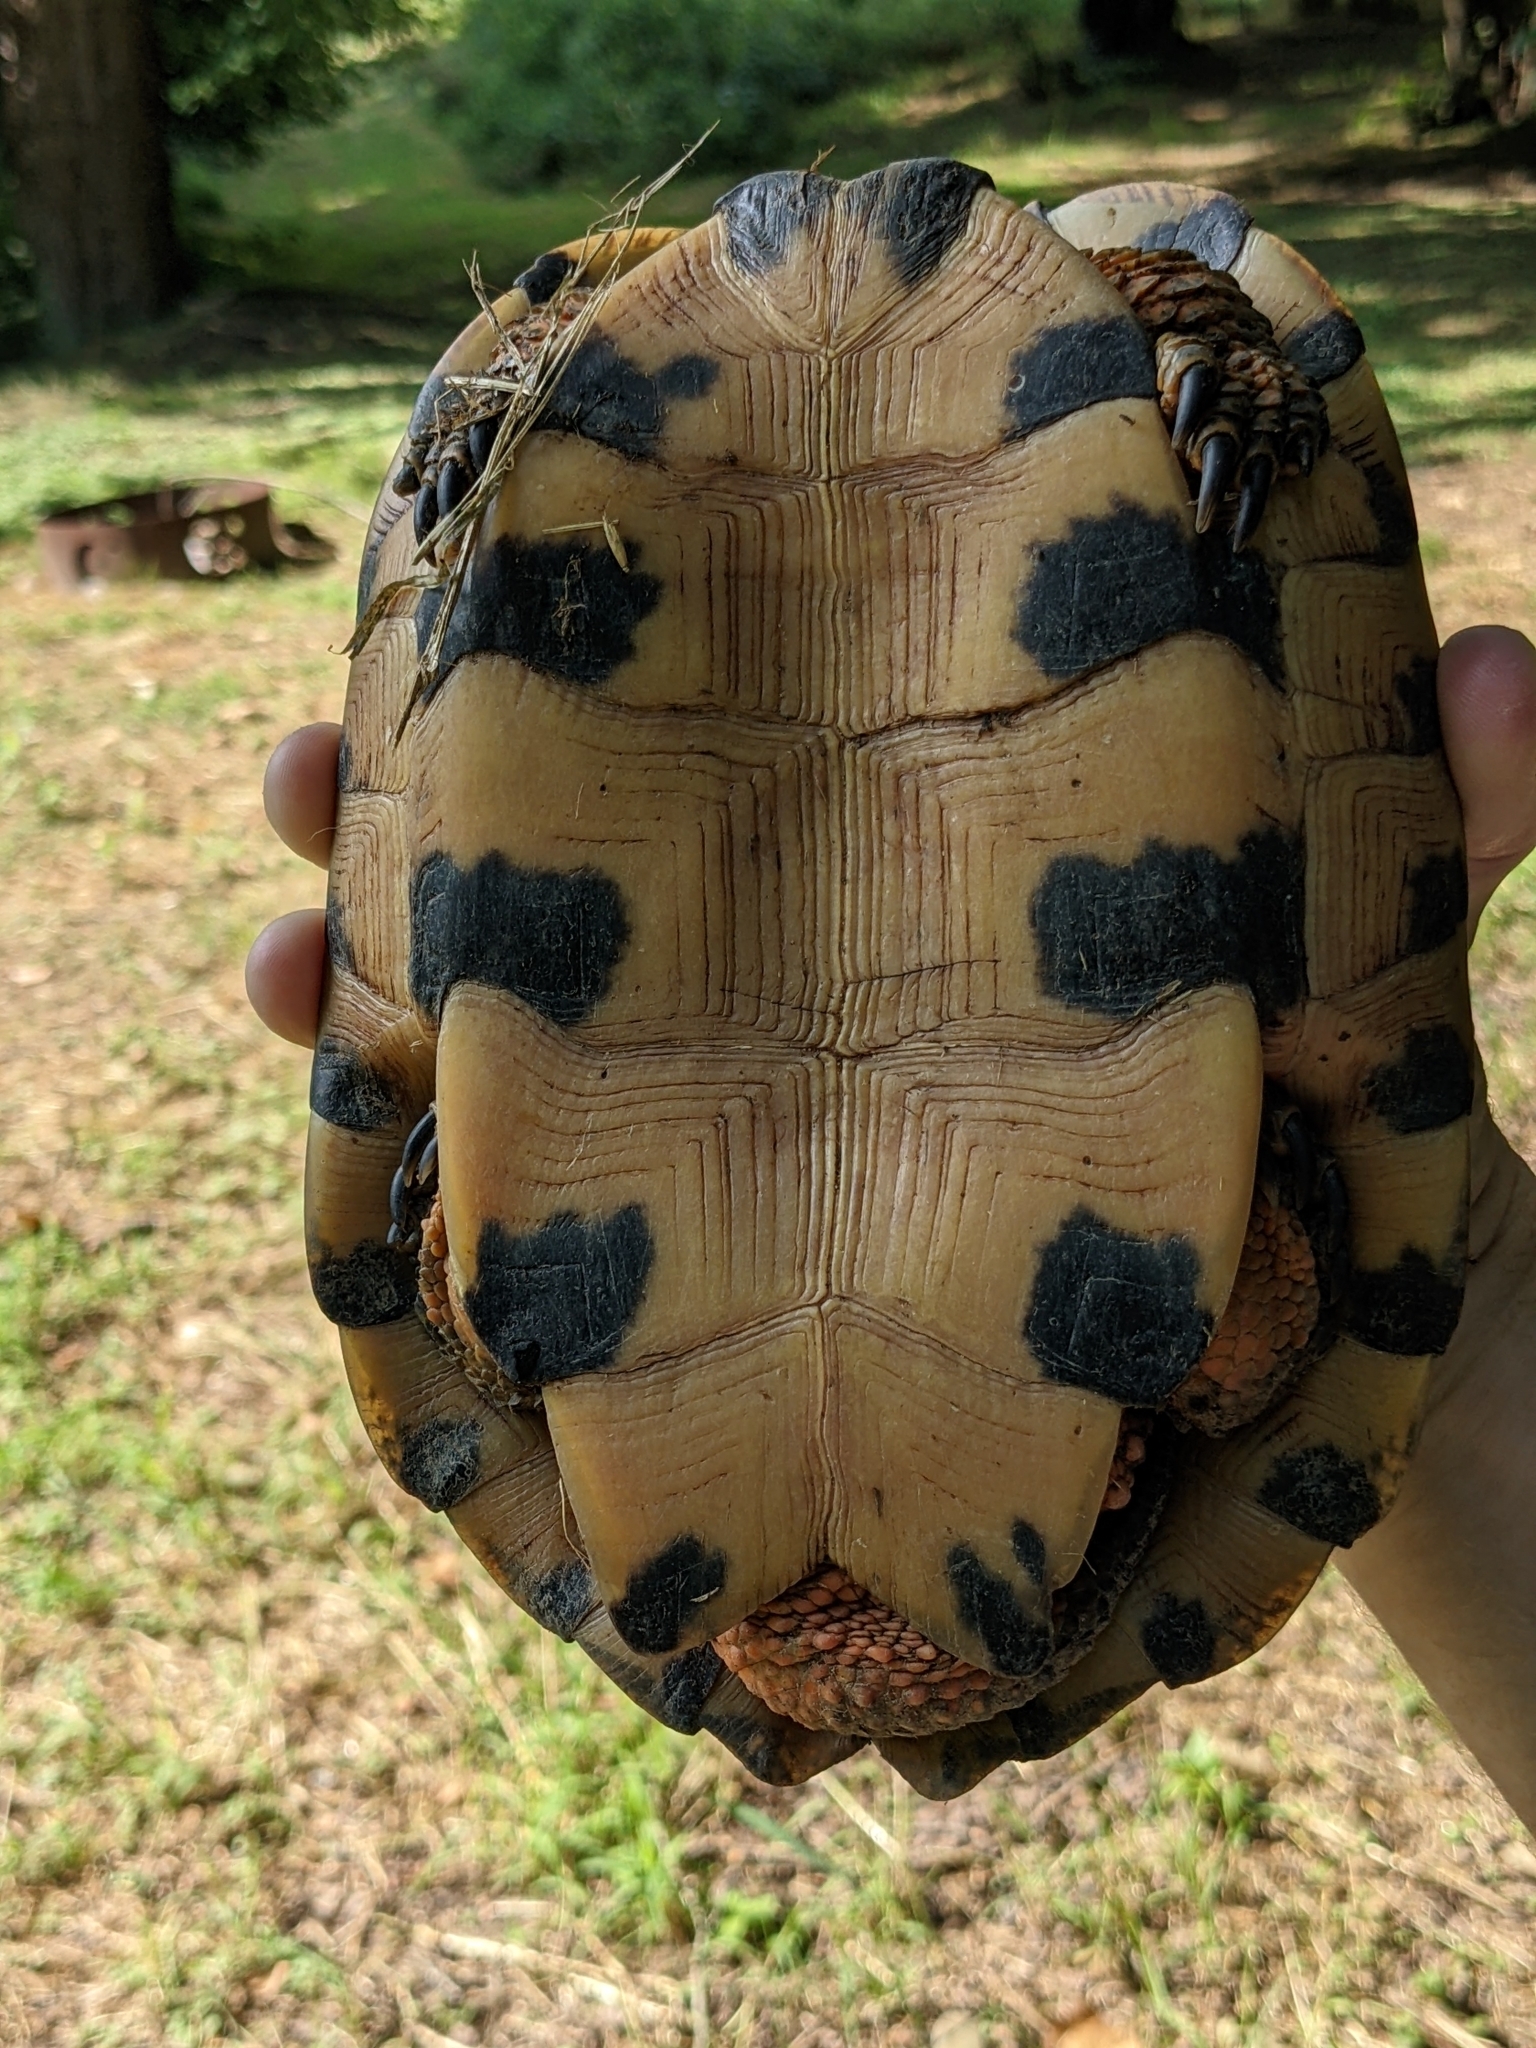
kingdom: Animalia
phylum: Chordata
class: Testudines
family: Emydidae
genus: Glyptemys
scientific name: Glyptemys insculpta
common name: Wood turtle
